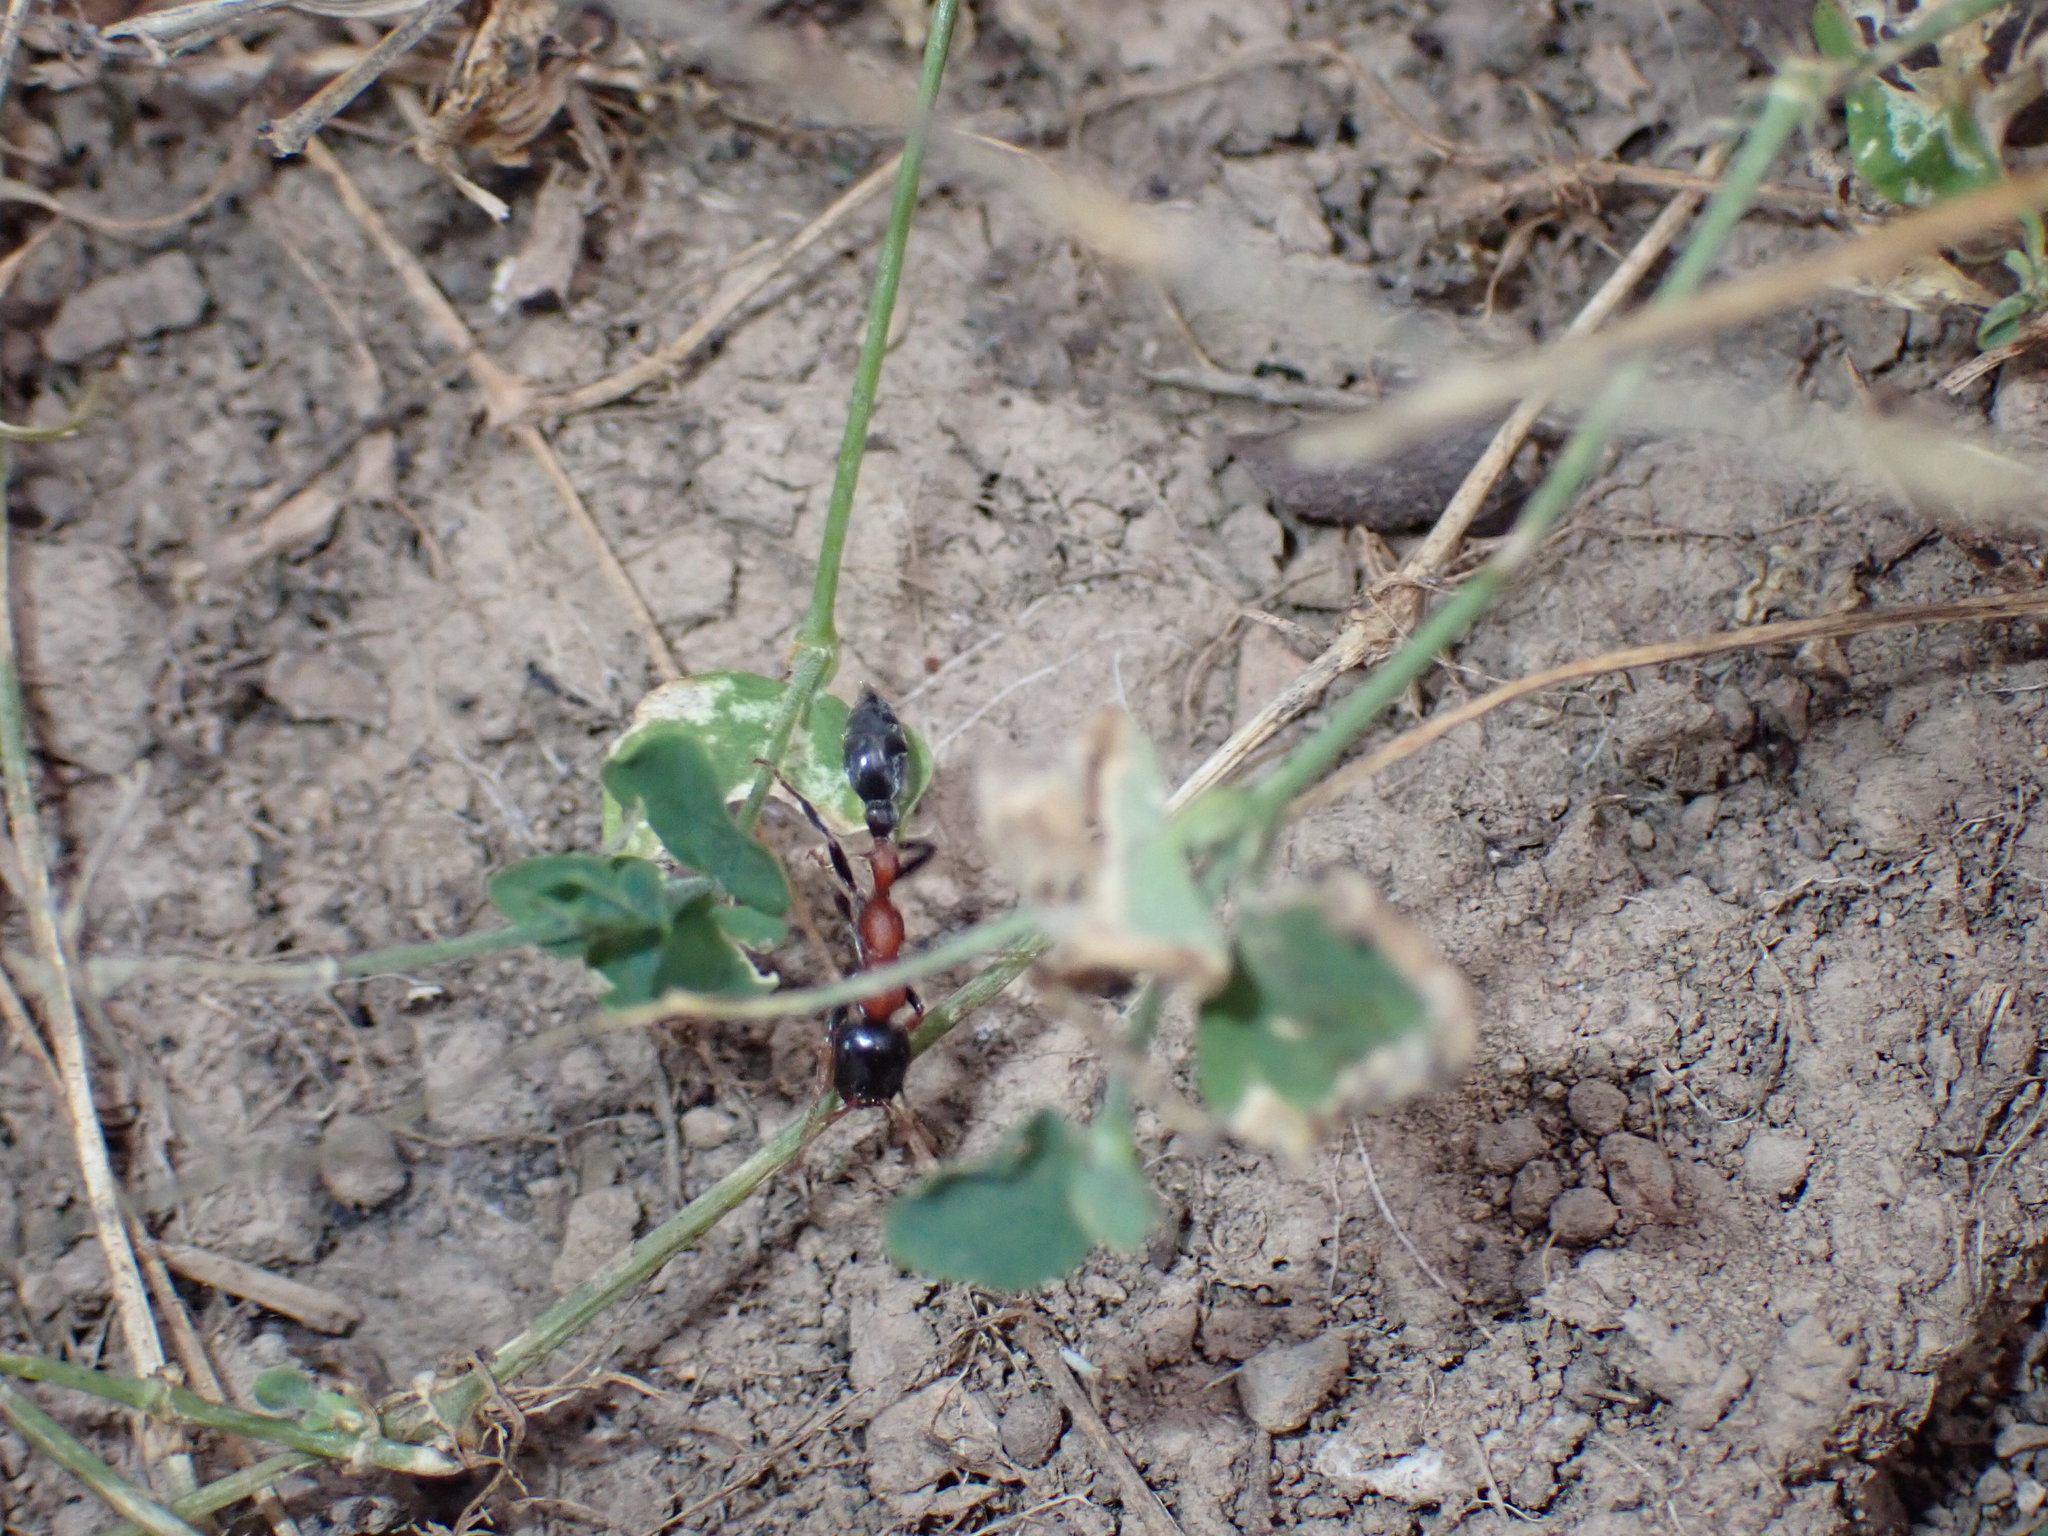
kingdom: Animalia
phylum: Arthropoda
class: Insecta
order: Hymenoptera
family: Formicidae
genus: Tetraponera
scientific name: Tetraponera rufonigra
